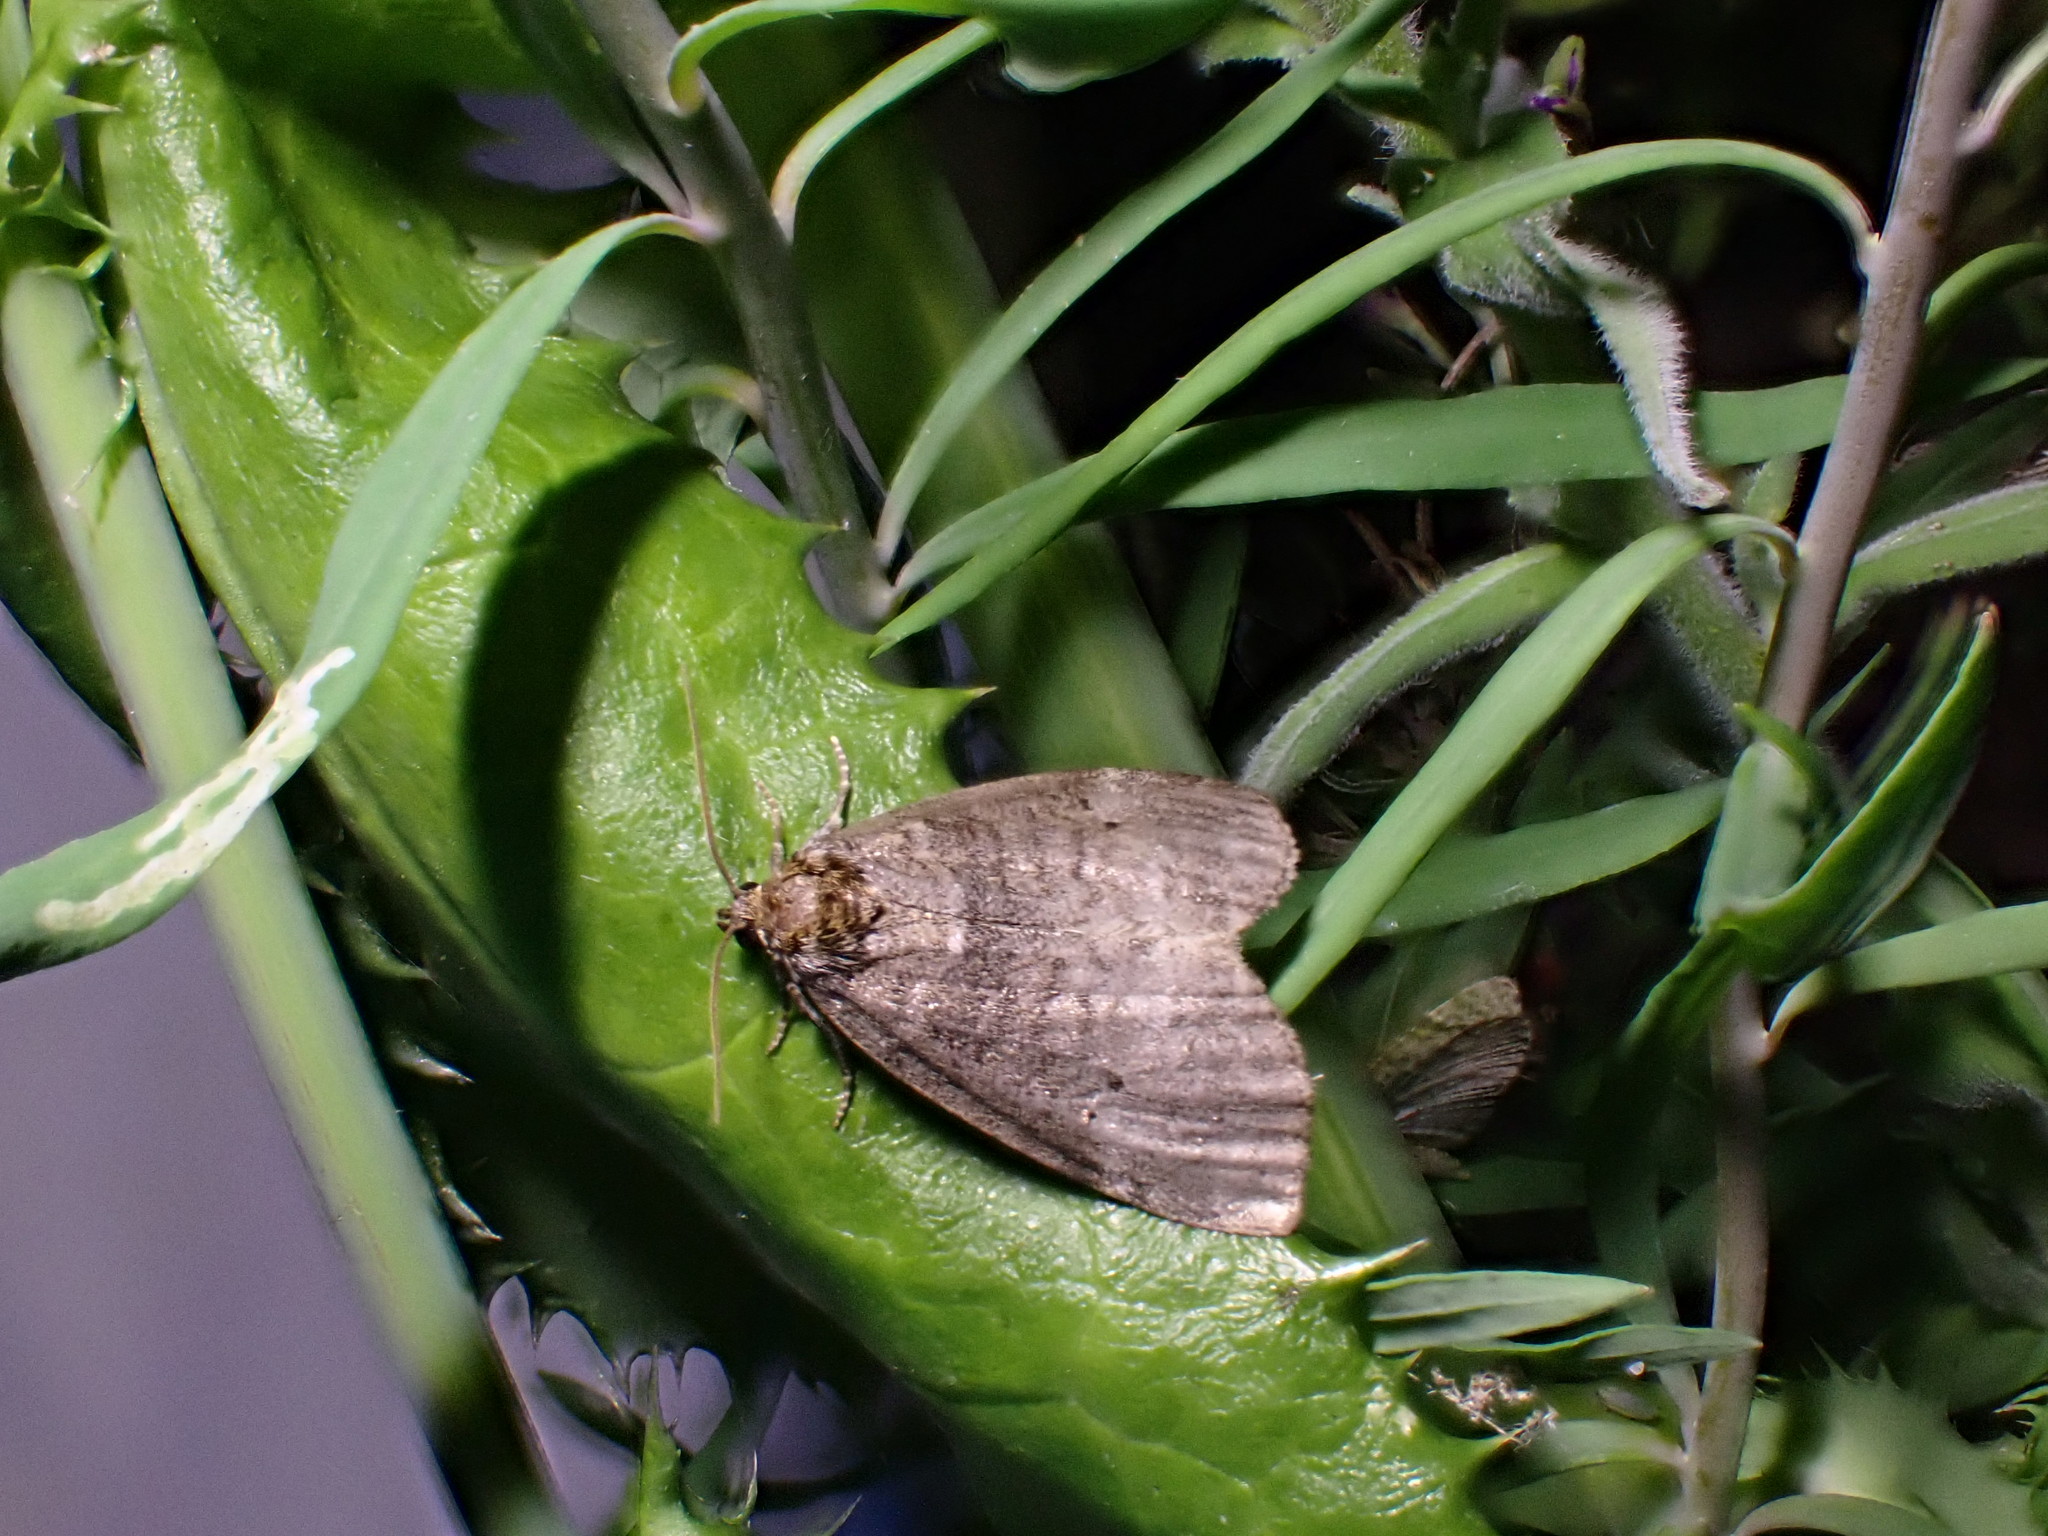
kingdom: Animalia
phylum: Arthropoda
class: Insecta
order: Lepidoptera
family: Drepanidae
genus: Ochropacha
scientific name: Ochropacha duplaris
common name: Common lutestring
